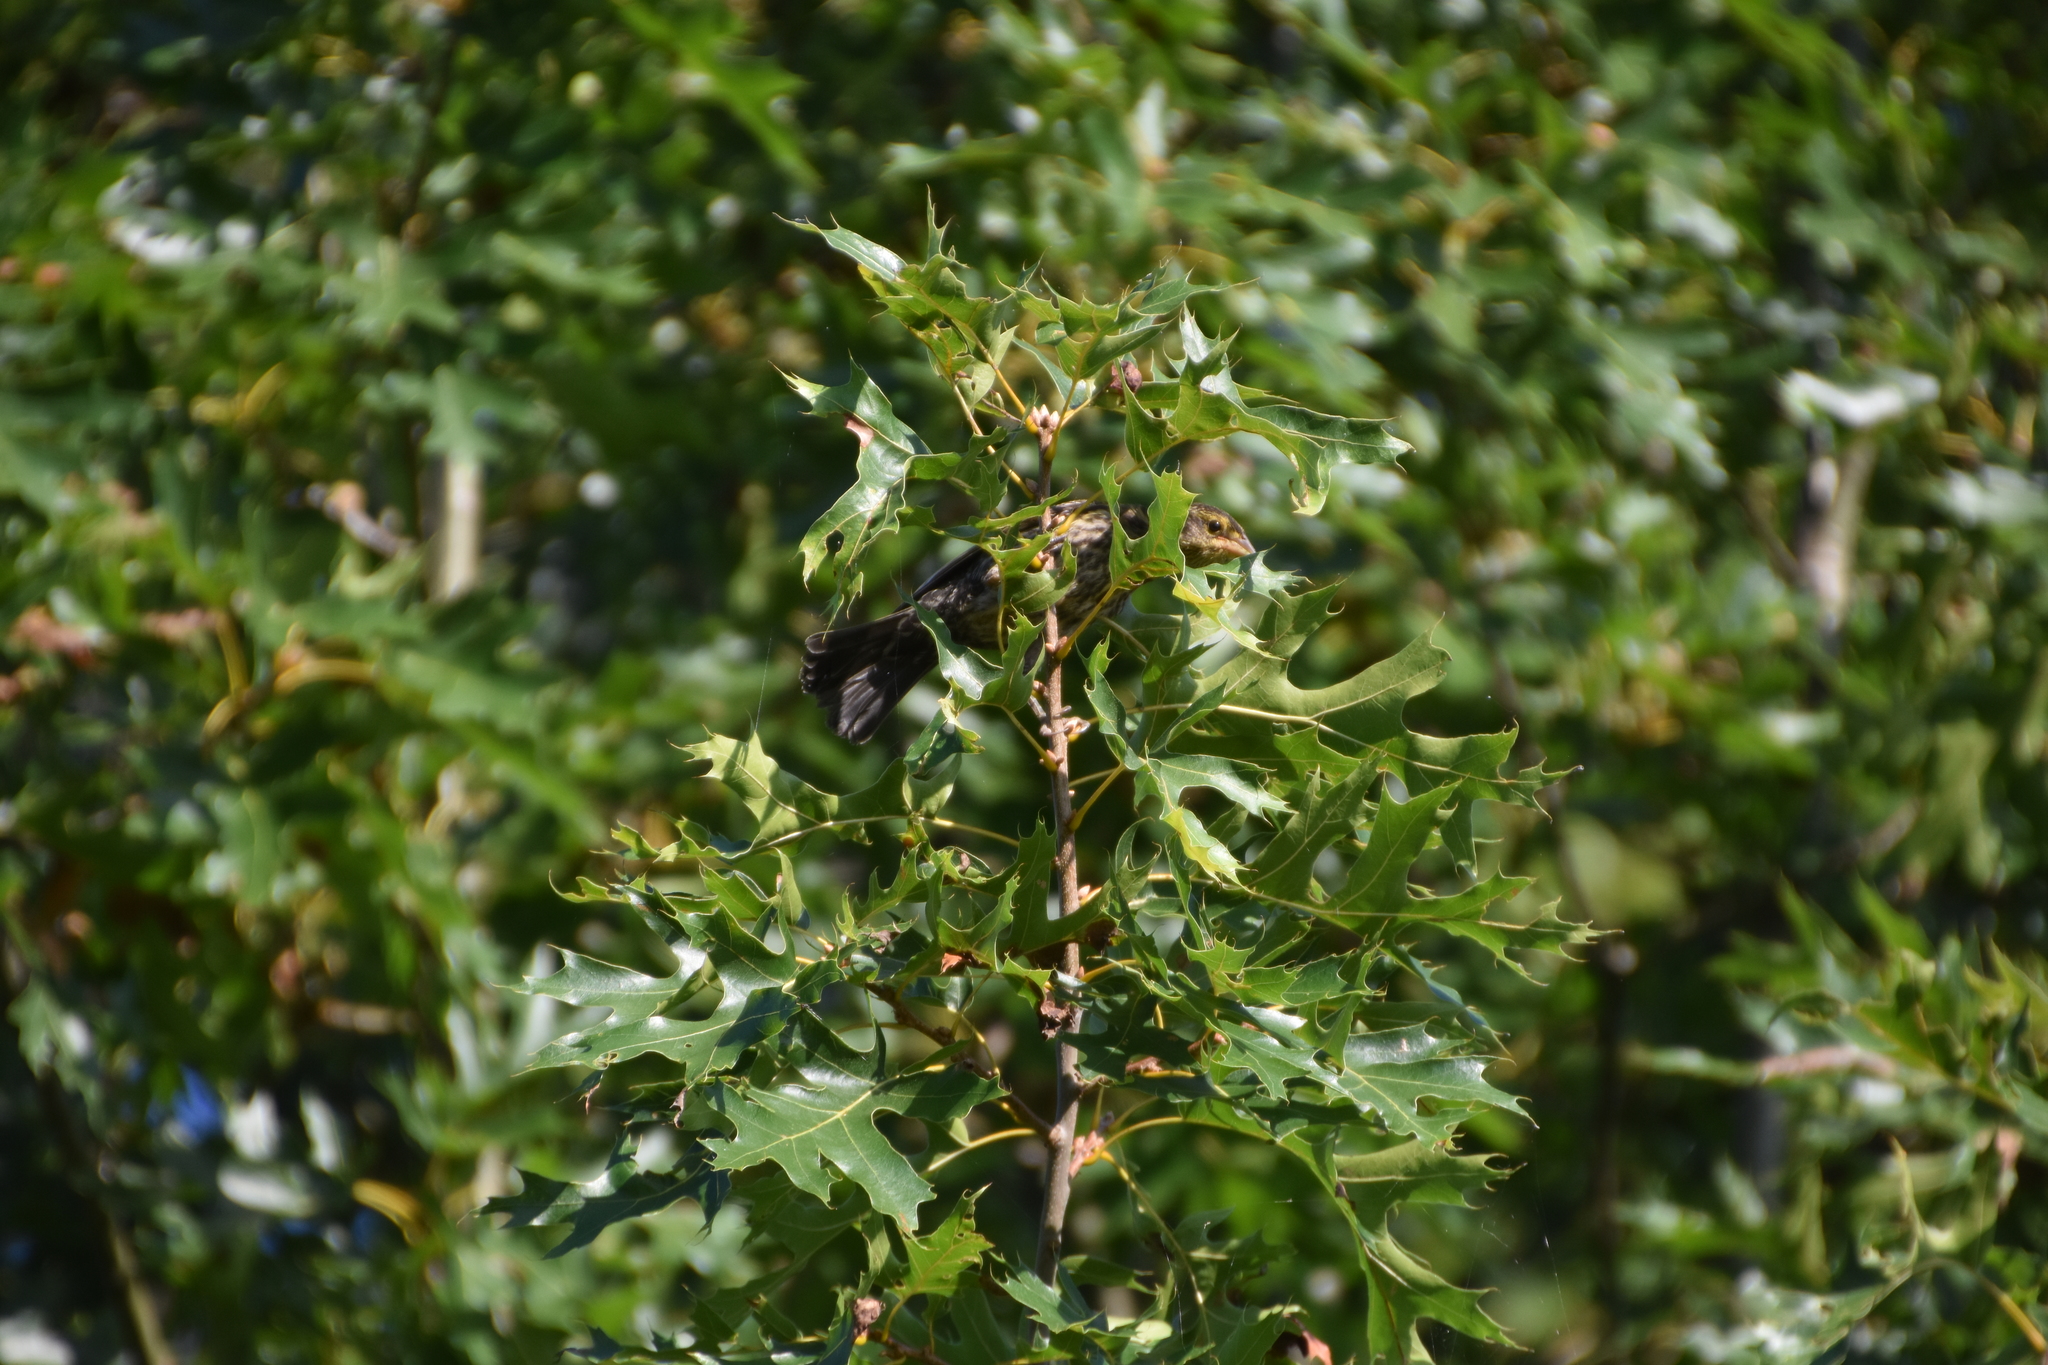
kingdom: Animalia
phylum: Chordata
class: Aves
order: Passeriformes
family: Icteridae
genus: Agelaius
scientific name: Agelaius phoeniceus
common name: Red-winged blackbird
